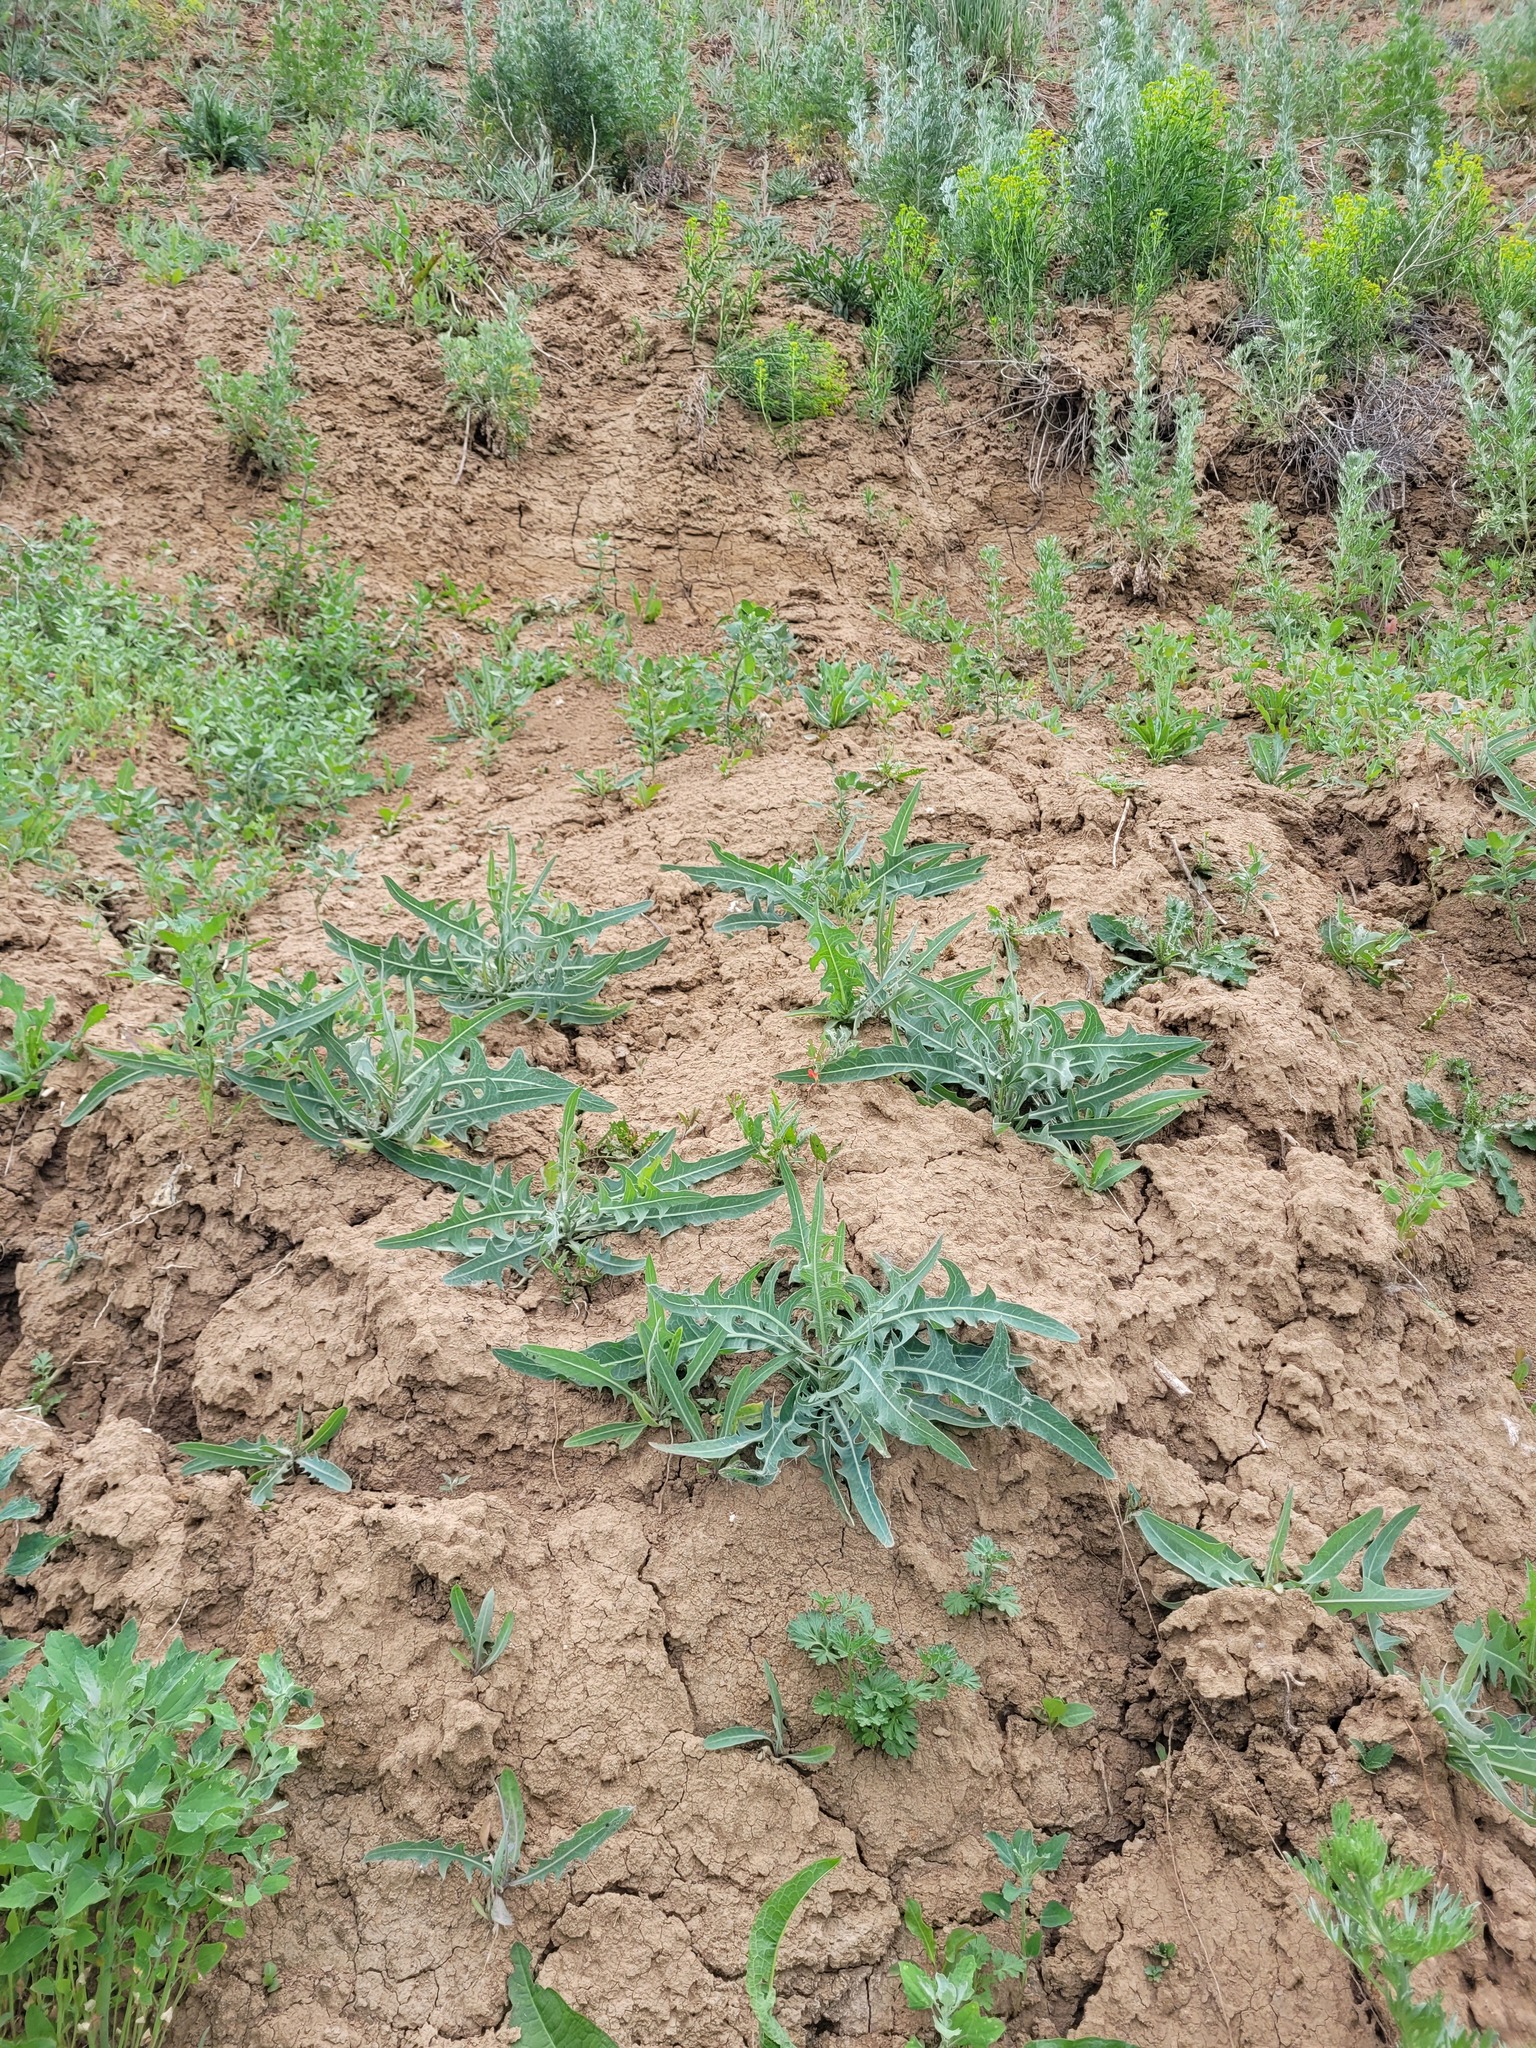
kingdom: Plantae
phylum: Tracheophyta
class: Magnoliopsida
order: Asterales
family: Asteraceae
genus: Lactuca
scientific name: Lactuca tatarica
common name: Blue lettuce
